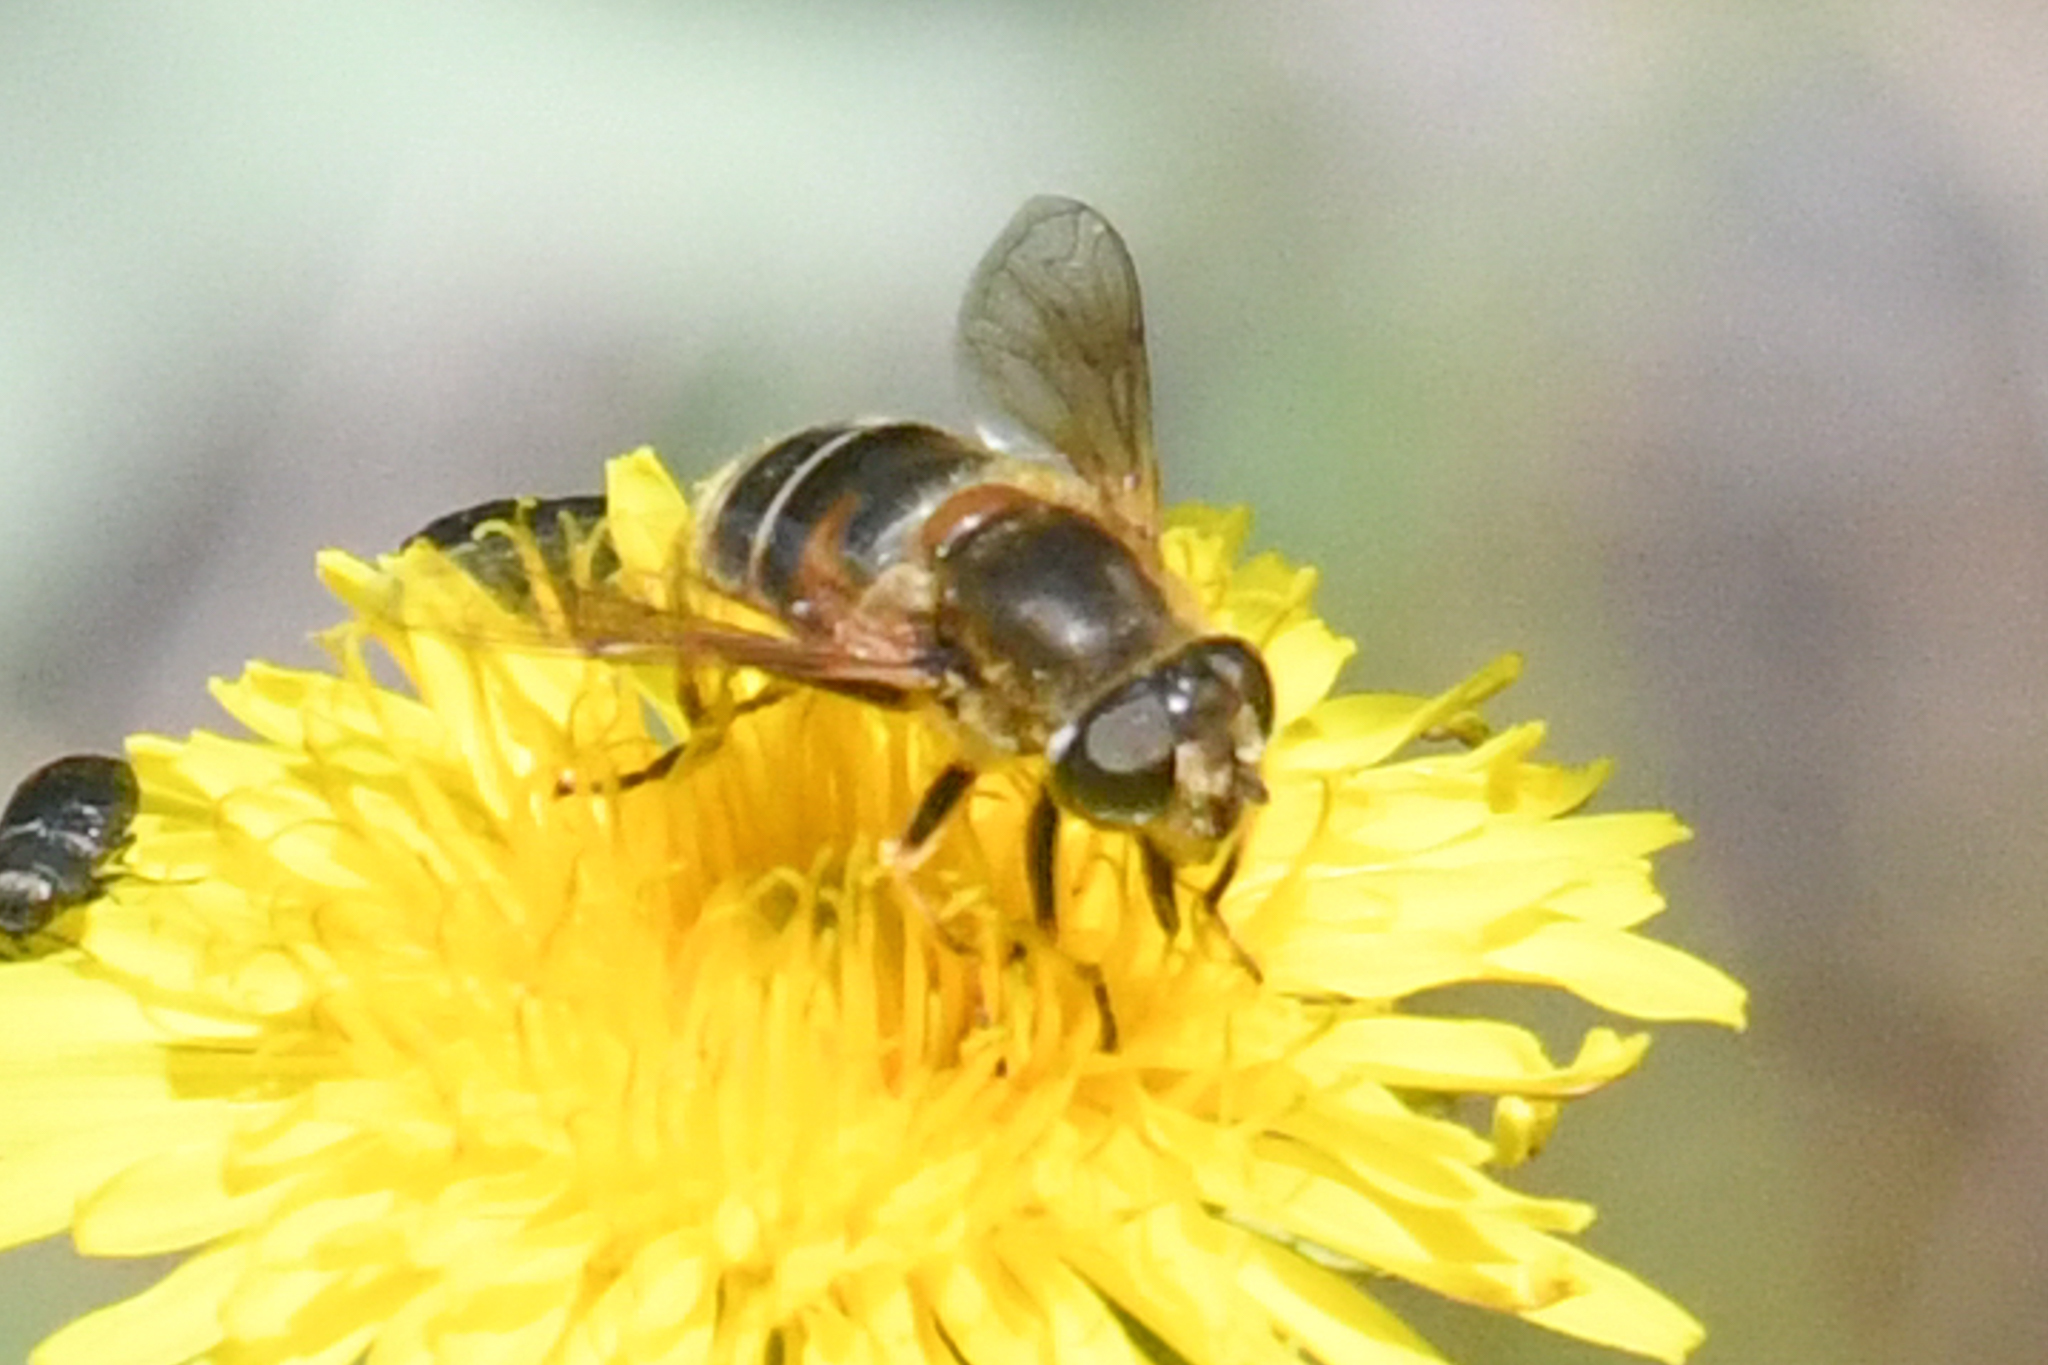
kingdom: Animalia
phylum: Arthropoda
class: Insecta
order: Diptera
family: Syrphidae
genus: Eristalis
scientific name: Eristalis nemorum
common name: Orange-spined drone fly
